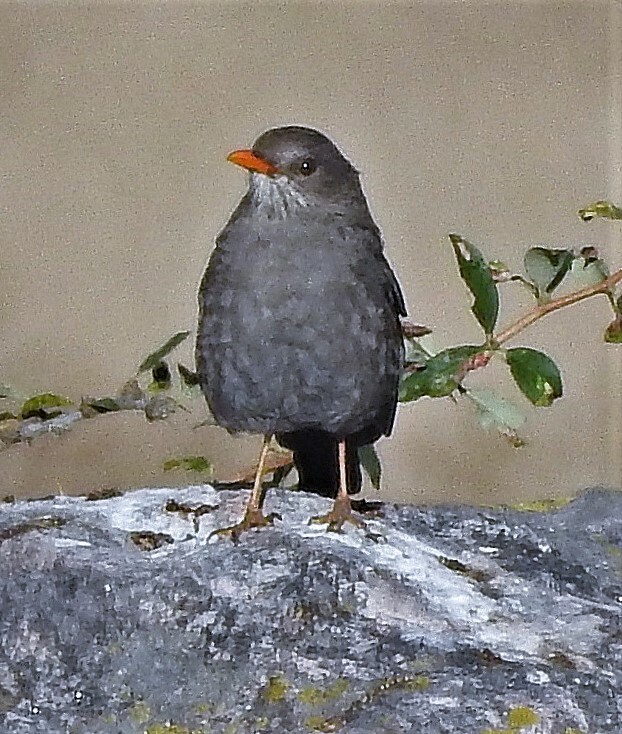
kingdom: Animalia
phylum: Chordata
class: Aves
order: Passeriformes
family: Turdidae
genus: Turdus
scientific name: Turdus chiguanco
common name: Chiguanco thrush
